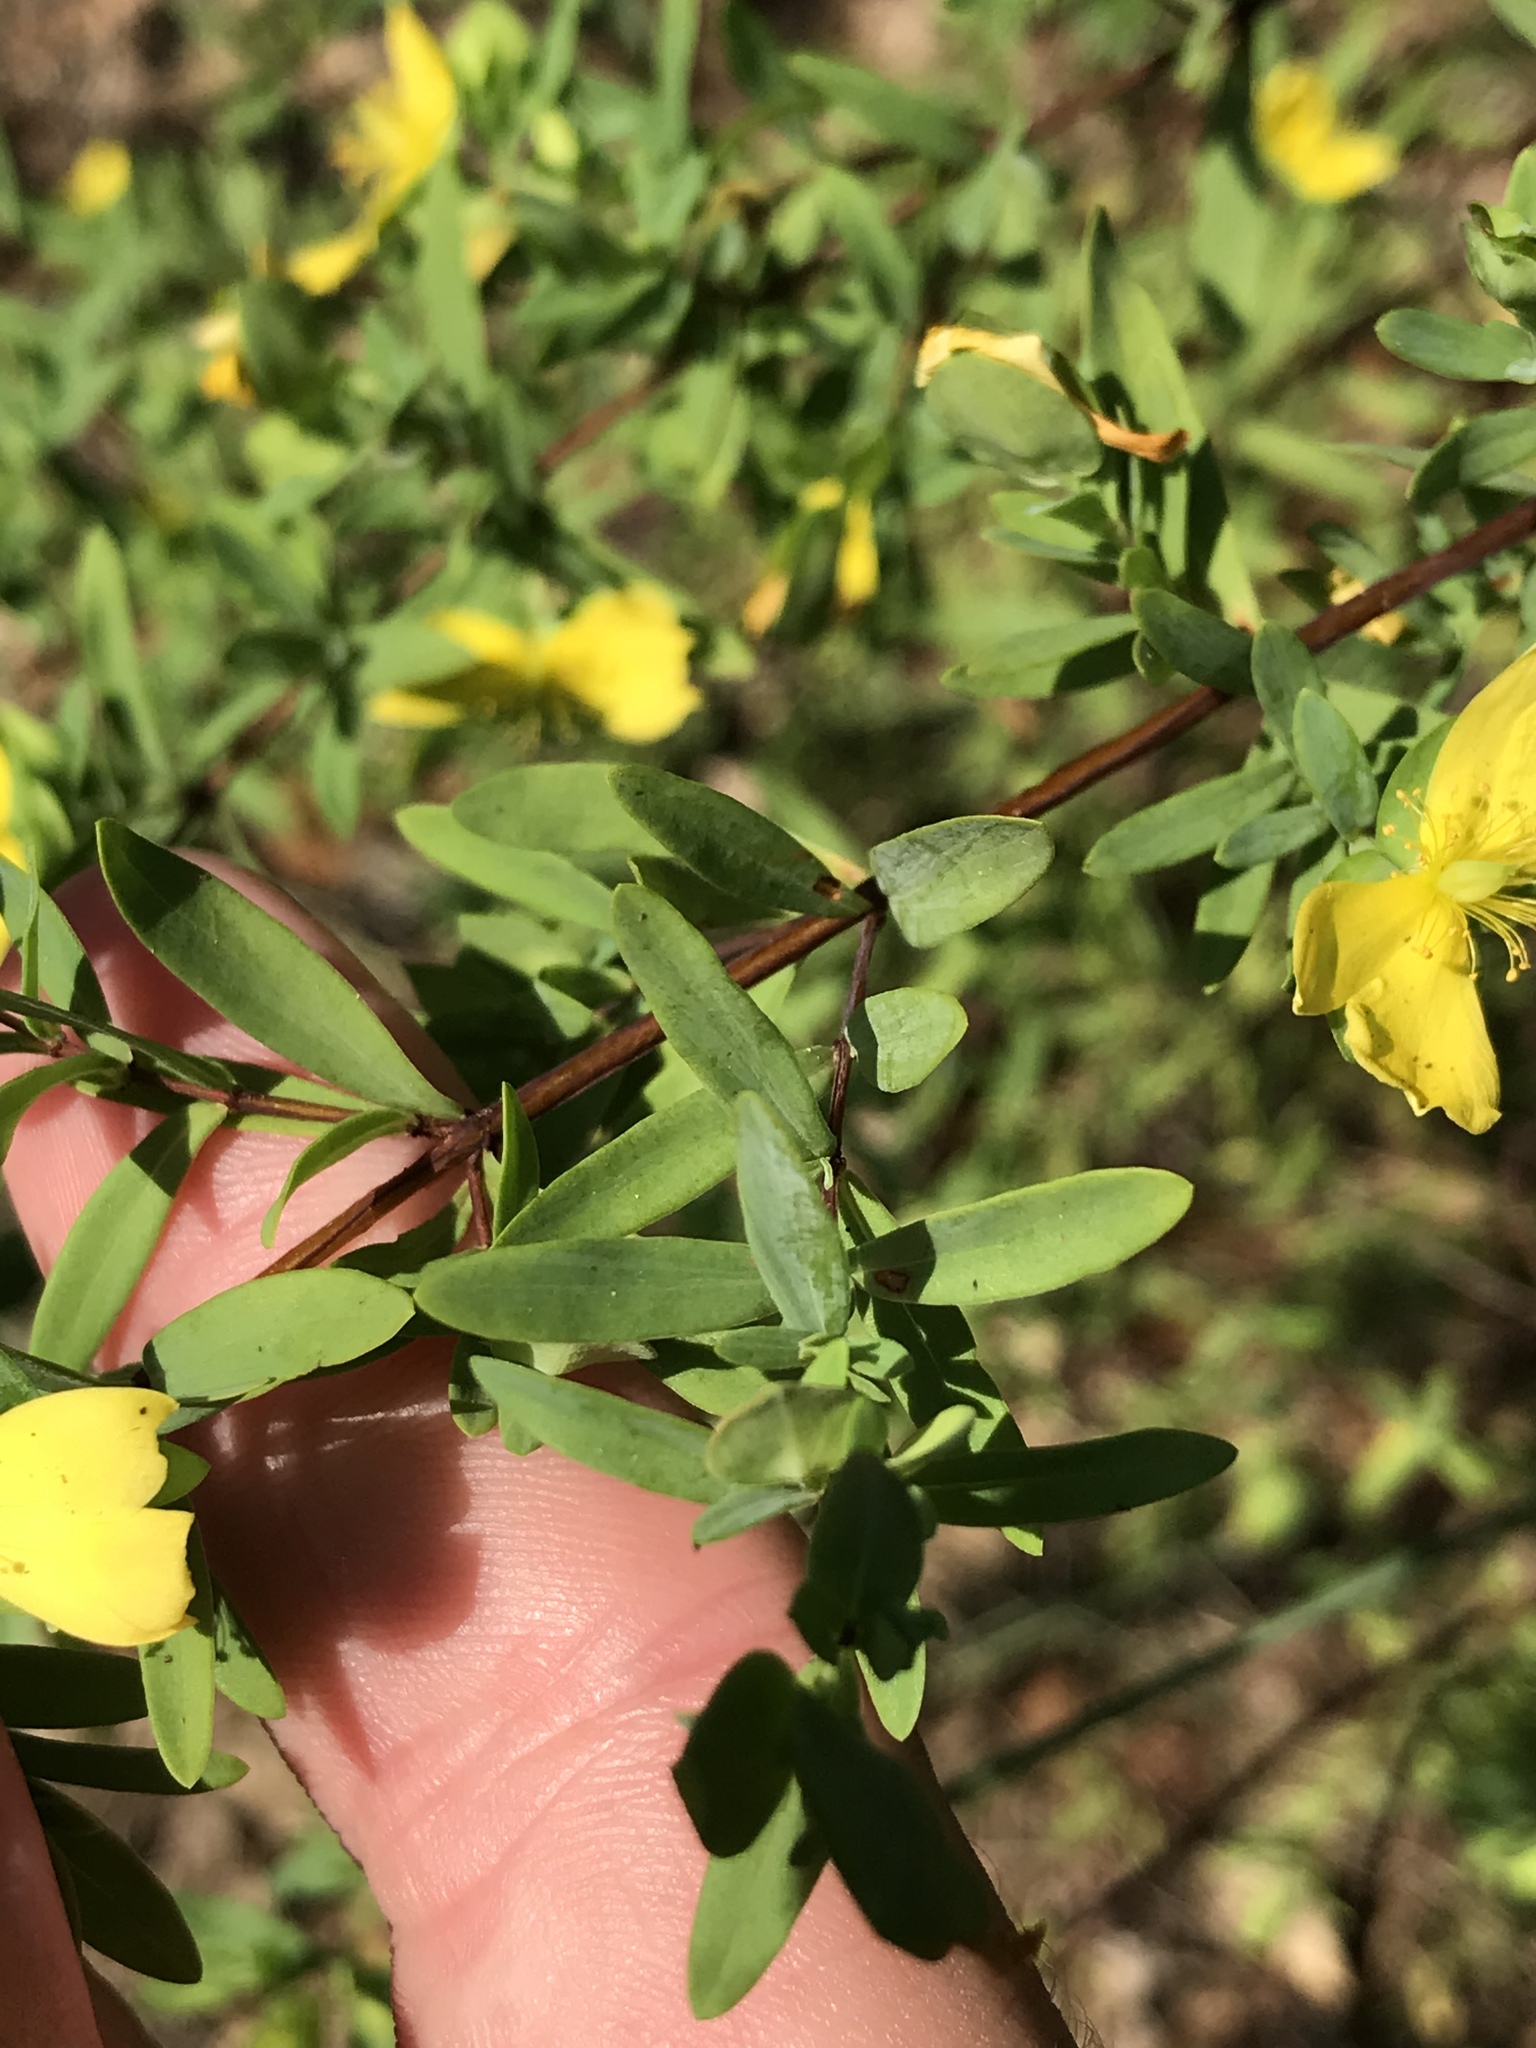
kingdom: Plantae
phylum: Tracheophyta
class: Magnoliopsida
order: Malpighiales
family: Hypericaceae
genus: Hypericum
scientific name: Hypericum hypericoides
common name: St. andrew's cross
